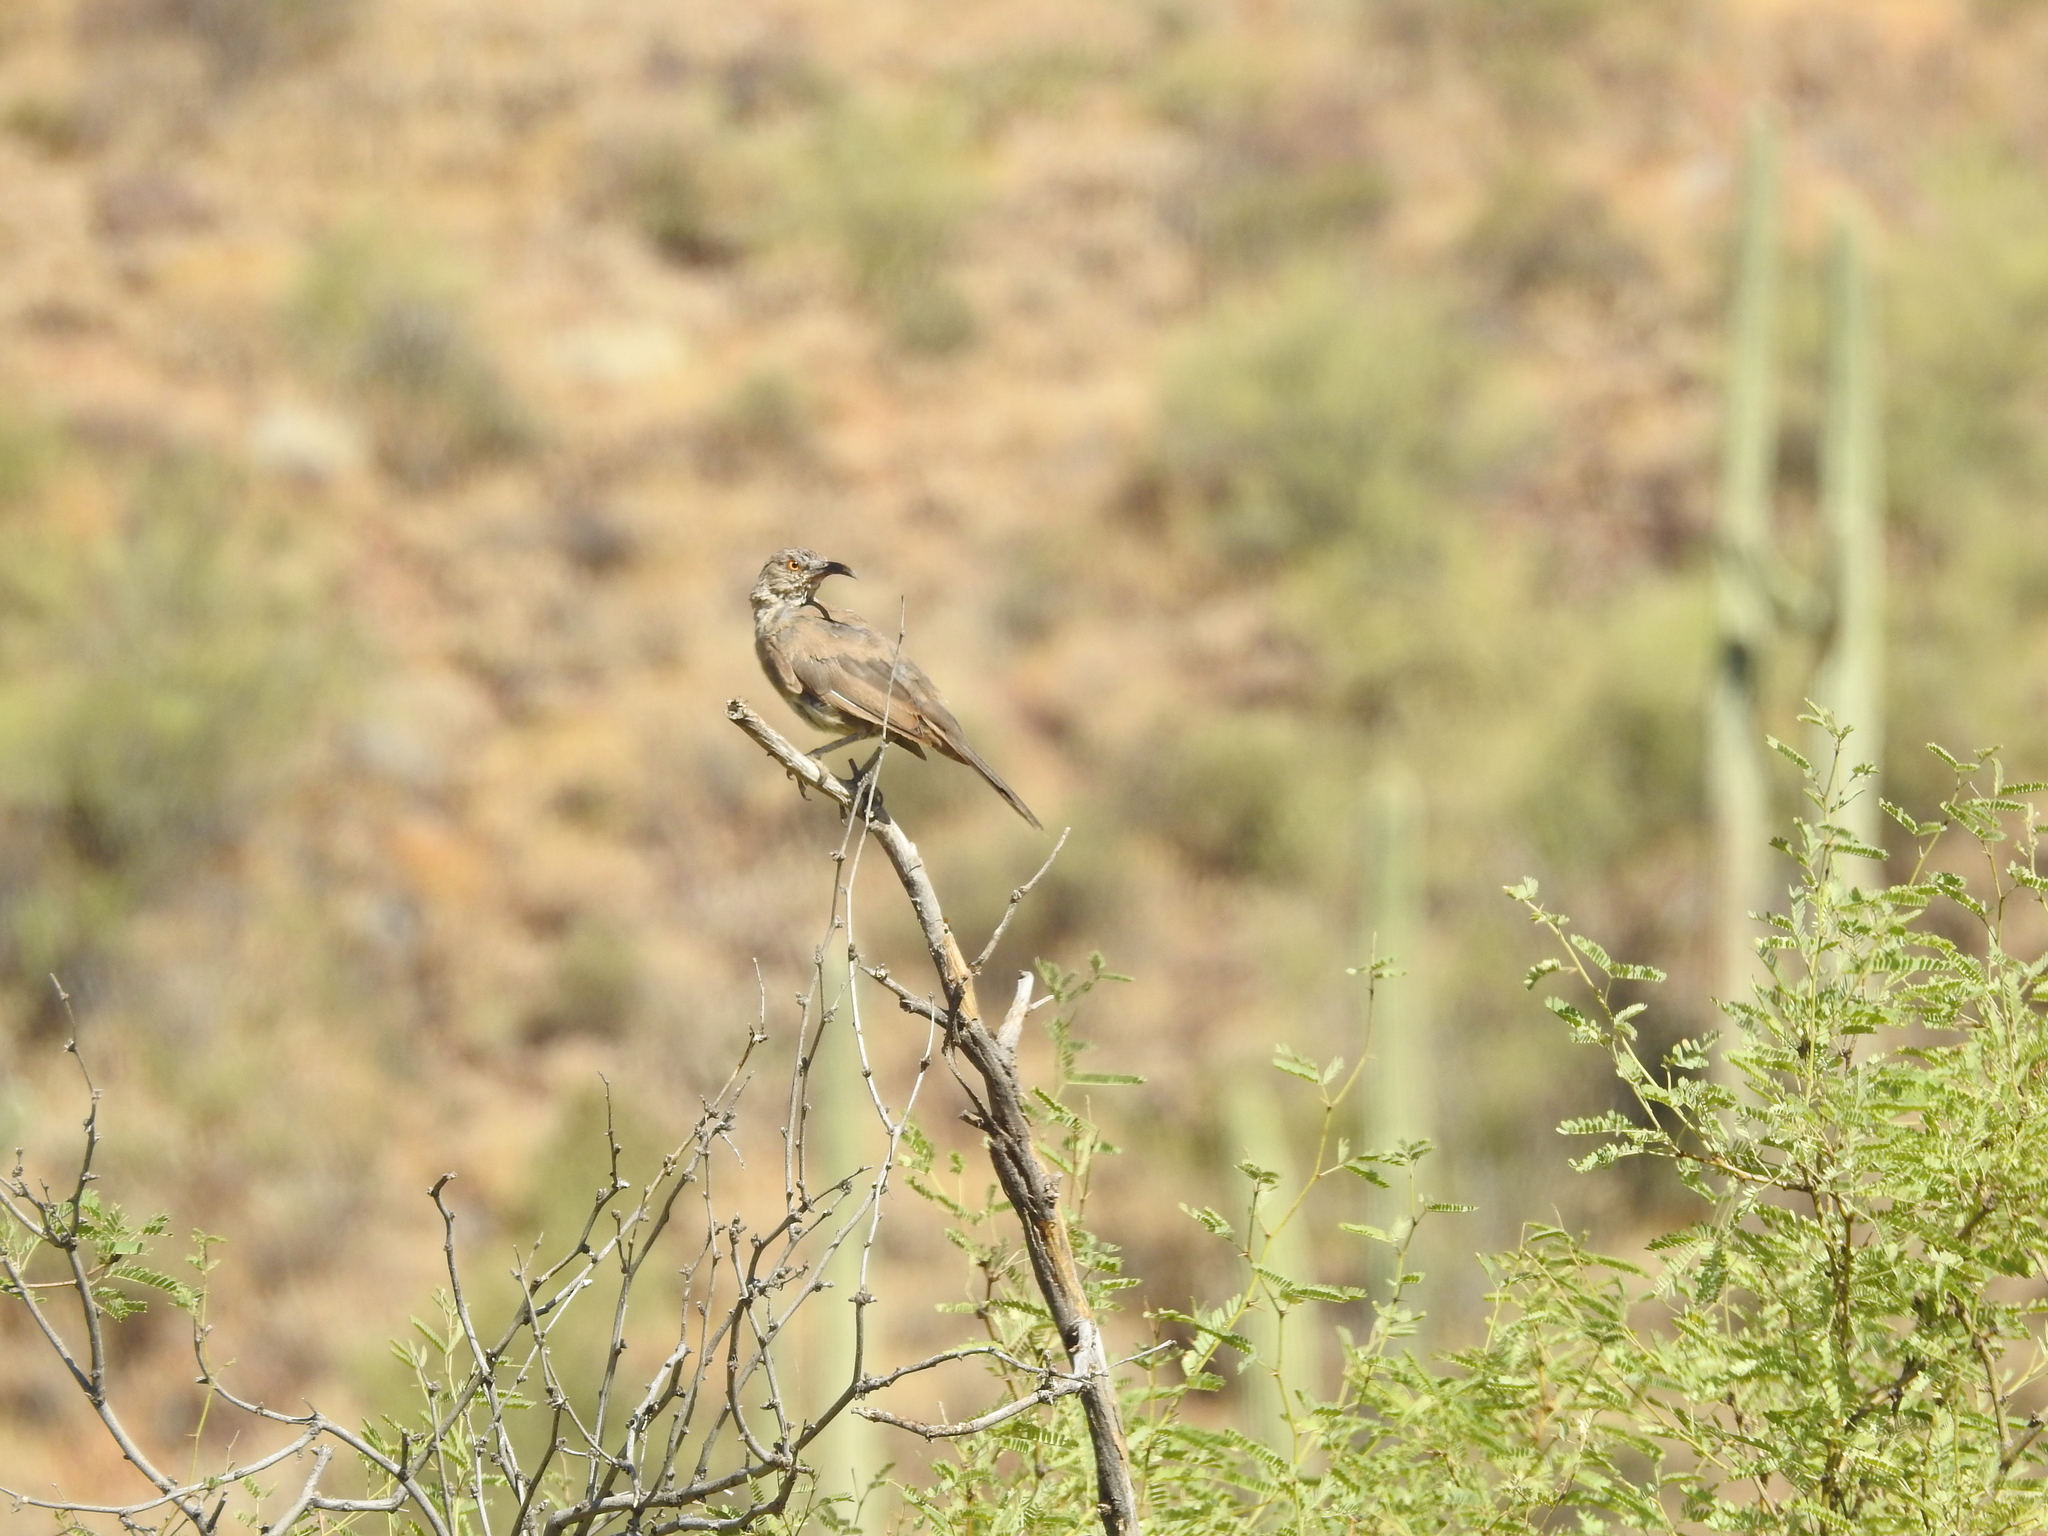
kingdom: Animalia
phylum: Chordata
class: Aves
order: Passeriformes
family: Mimidae
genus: Toxostoma
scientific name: Toxostoma curvirostre
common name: Curve-billed thrasher
